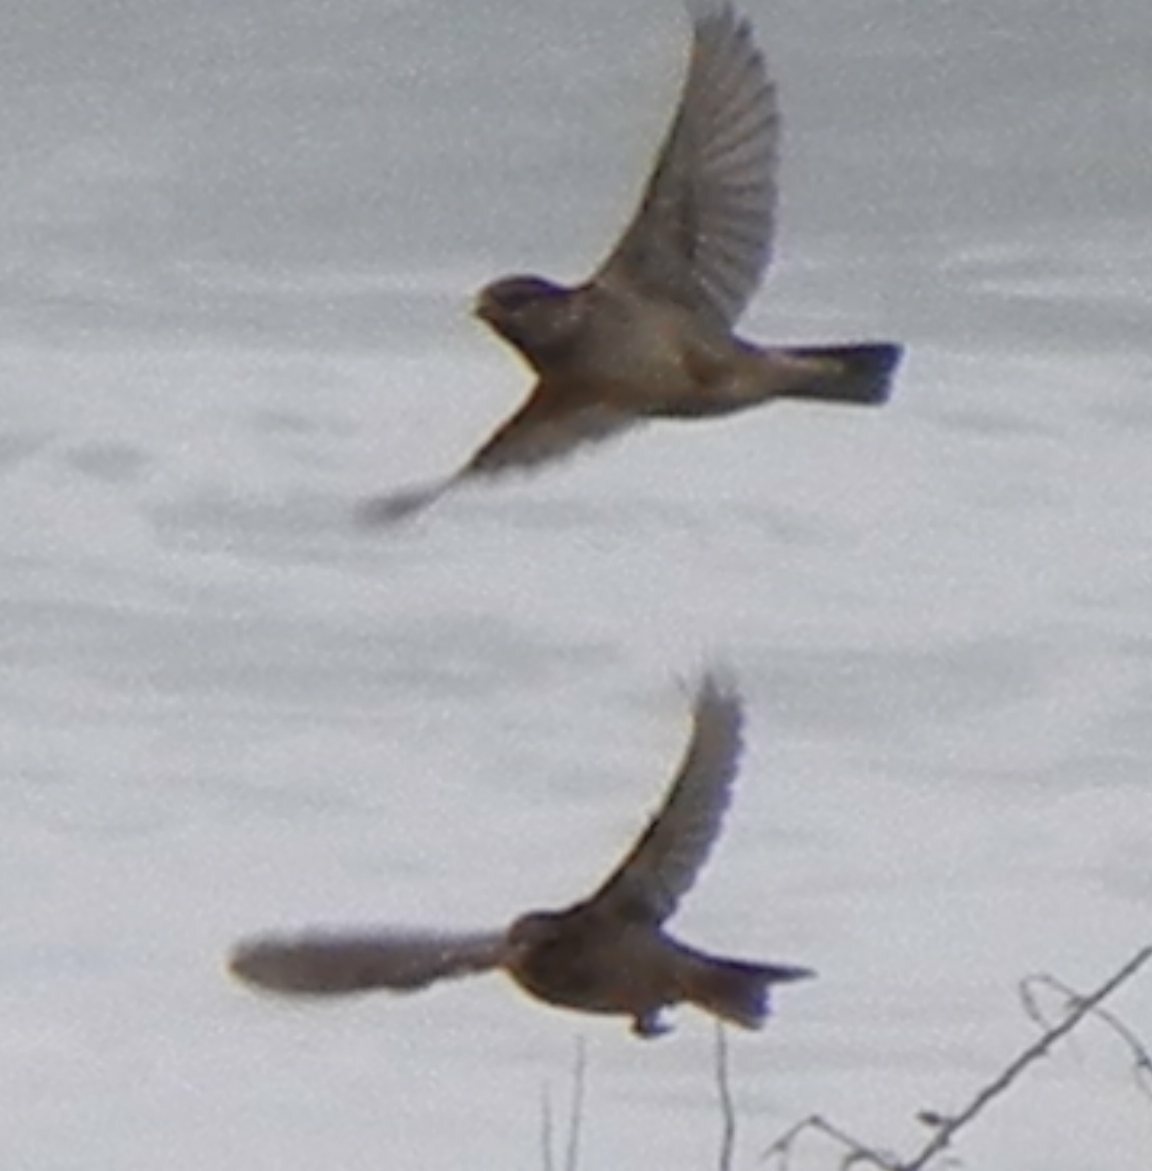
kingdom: Animalia
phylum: Chordata
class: Aves
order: Passeriformes
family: Passeridae
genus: Passer
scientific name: Passer domesticus
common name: House sparrow
